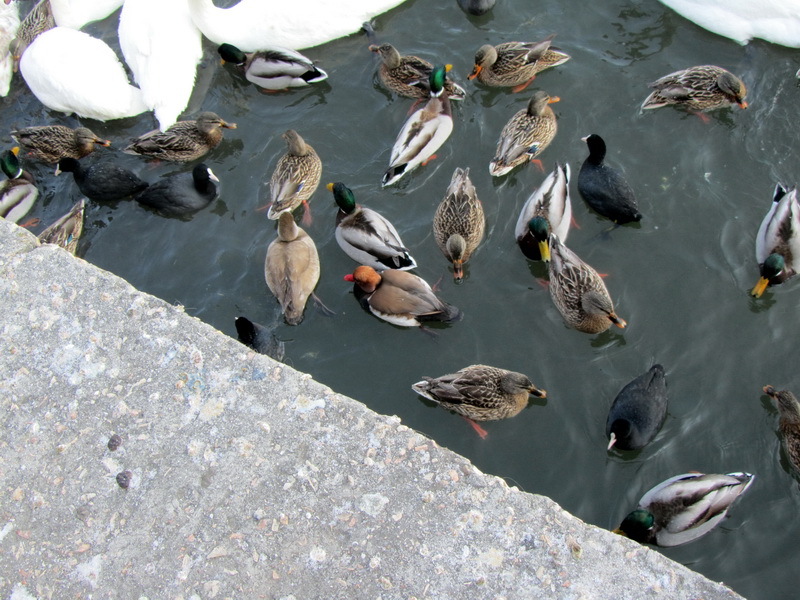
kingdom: Animalia
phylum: Chordata
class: Aves
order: Anseriformes
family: Anatidae
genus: Anas
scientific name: Anas platyrhynchos
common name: Mallard
